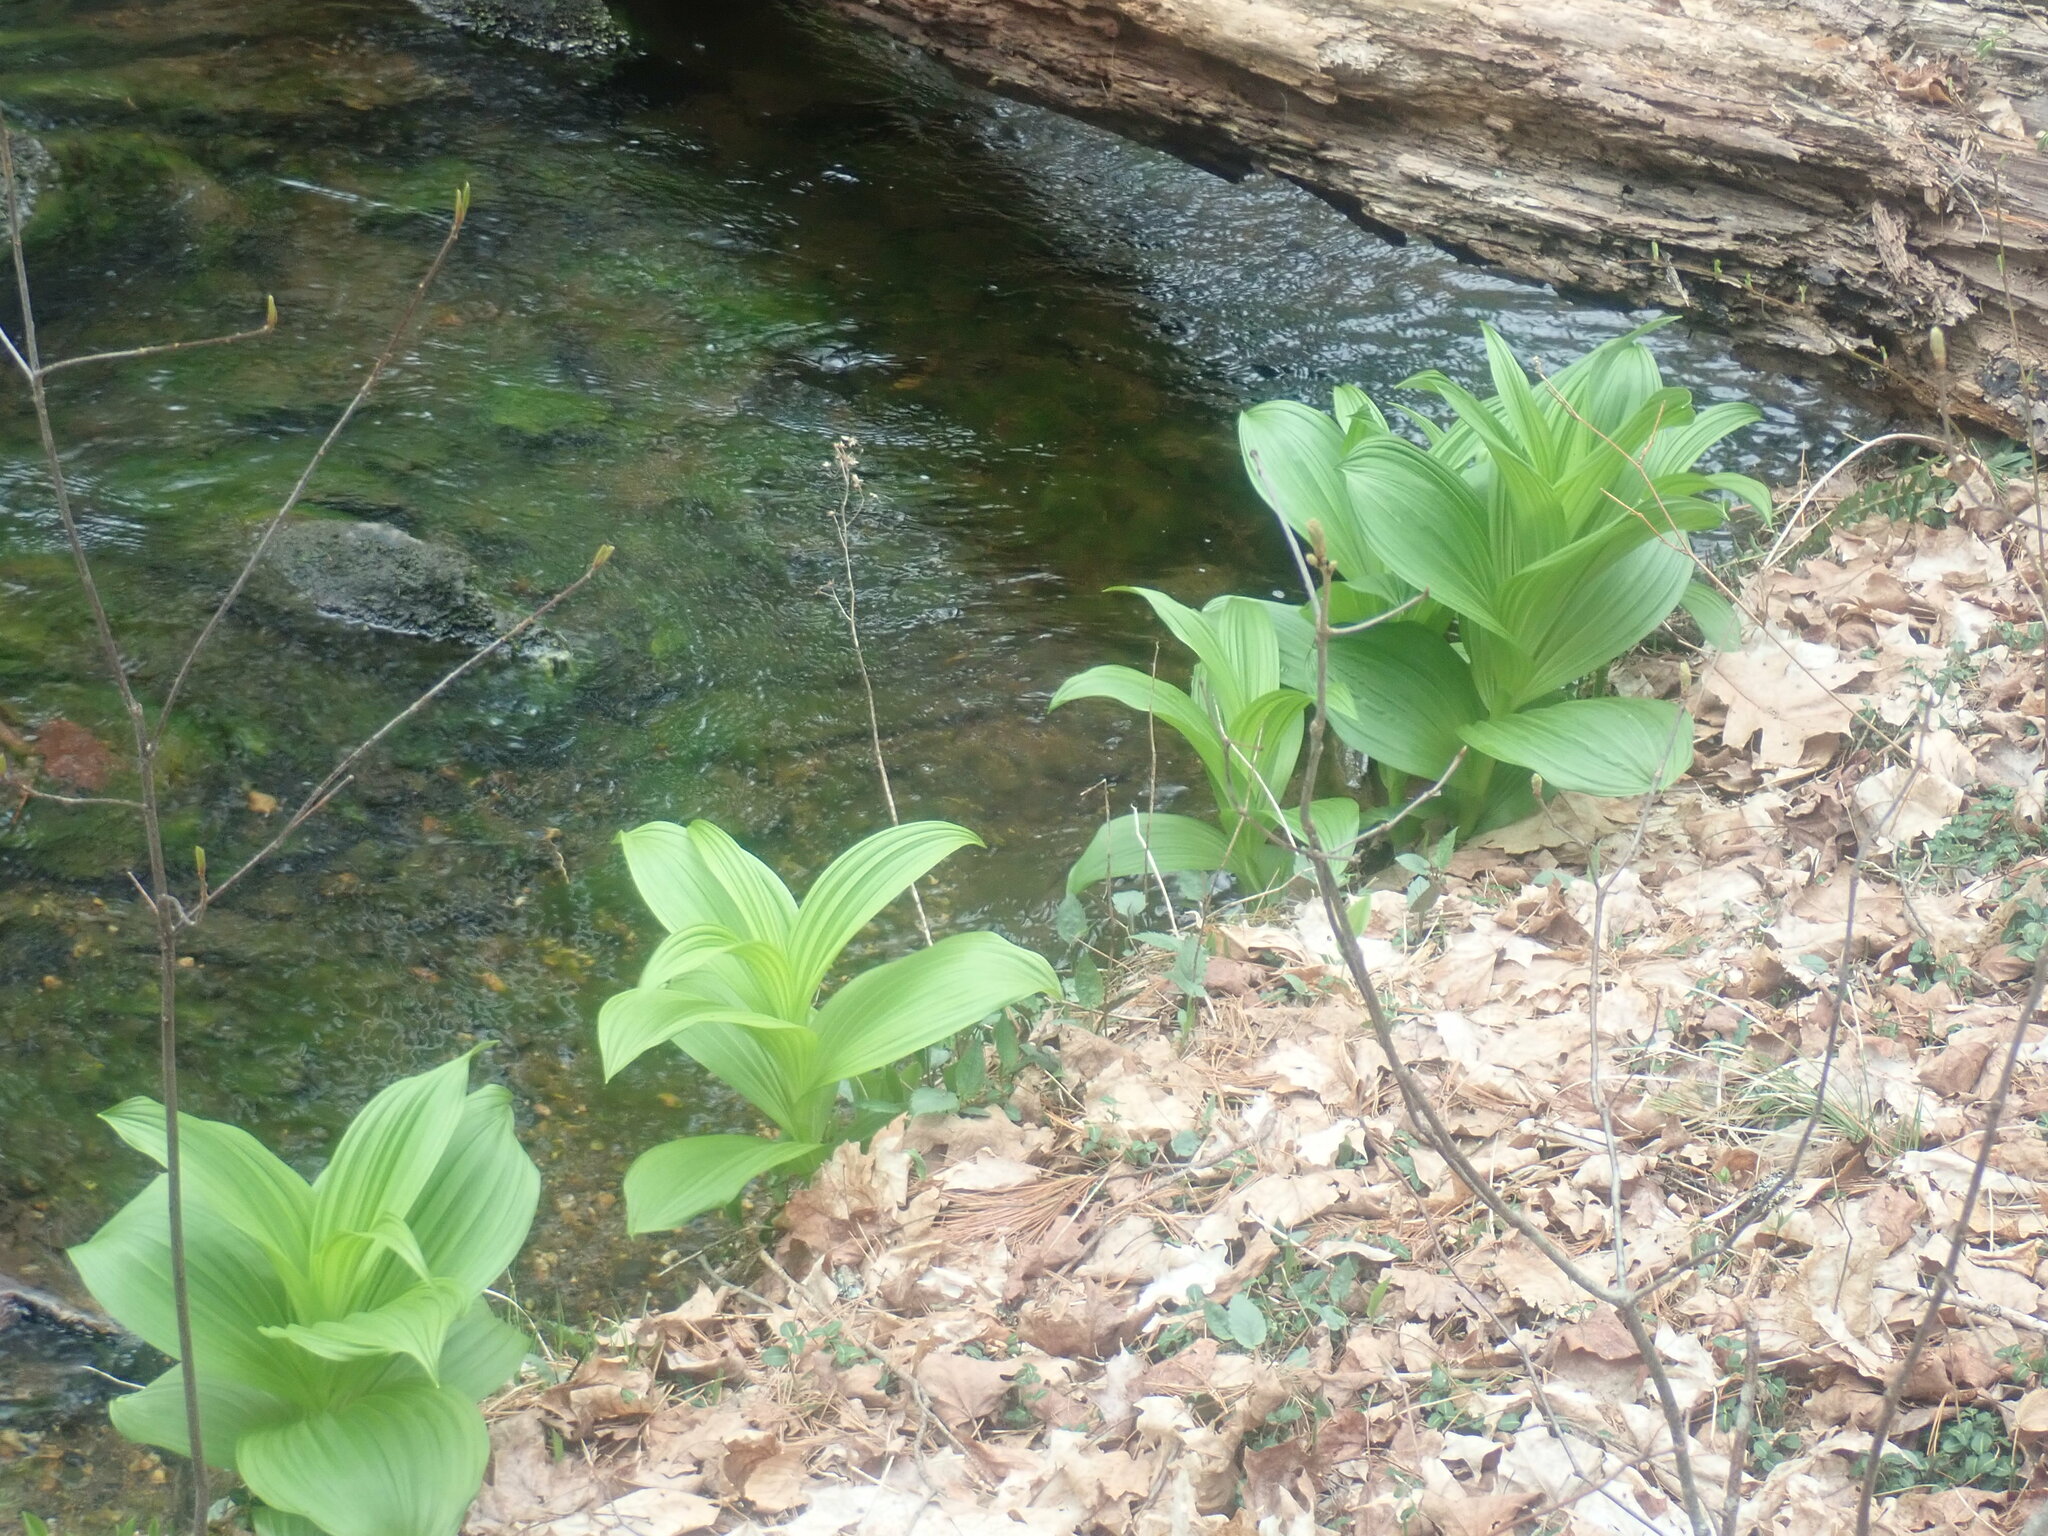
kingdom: Plantae
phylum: Tracheophyta
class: Liliopsida
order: Liliales
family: Melanthiaceae
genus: Veratrum
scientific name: Veratrum viride
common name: American false hellebore
